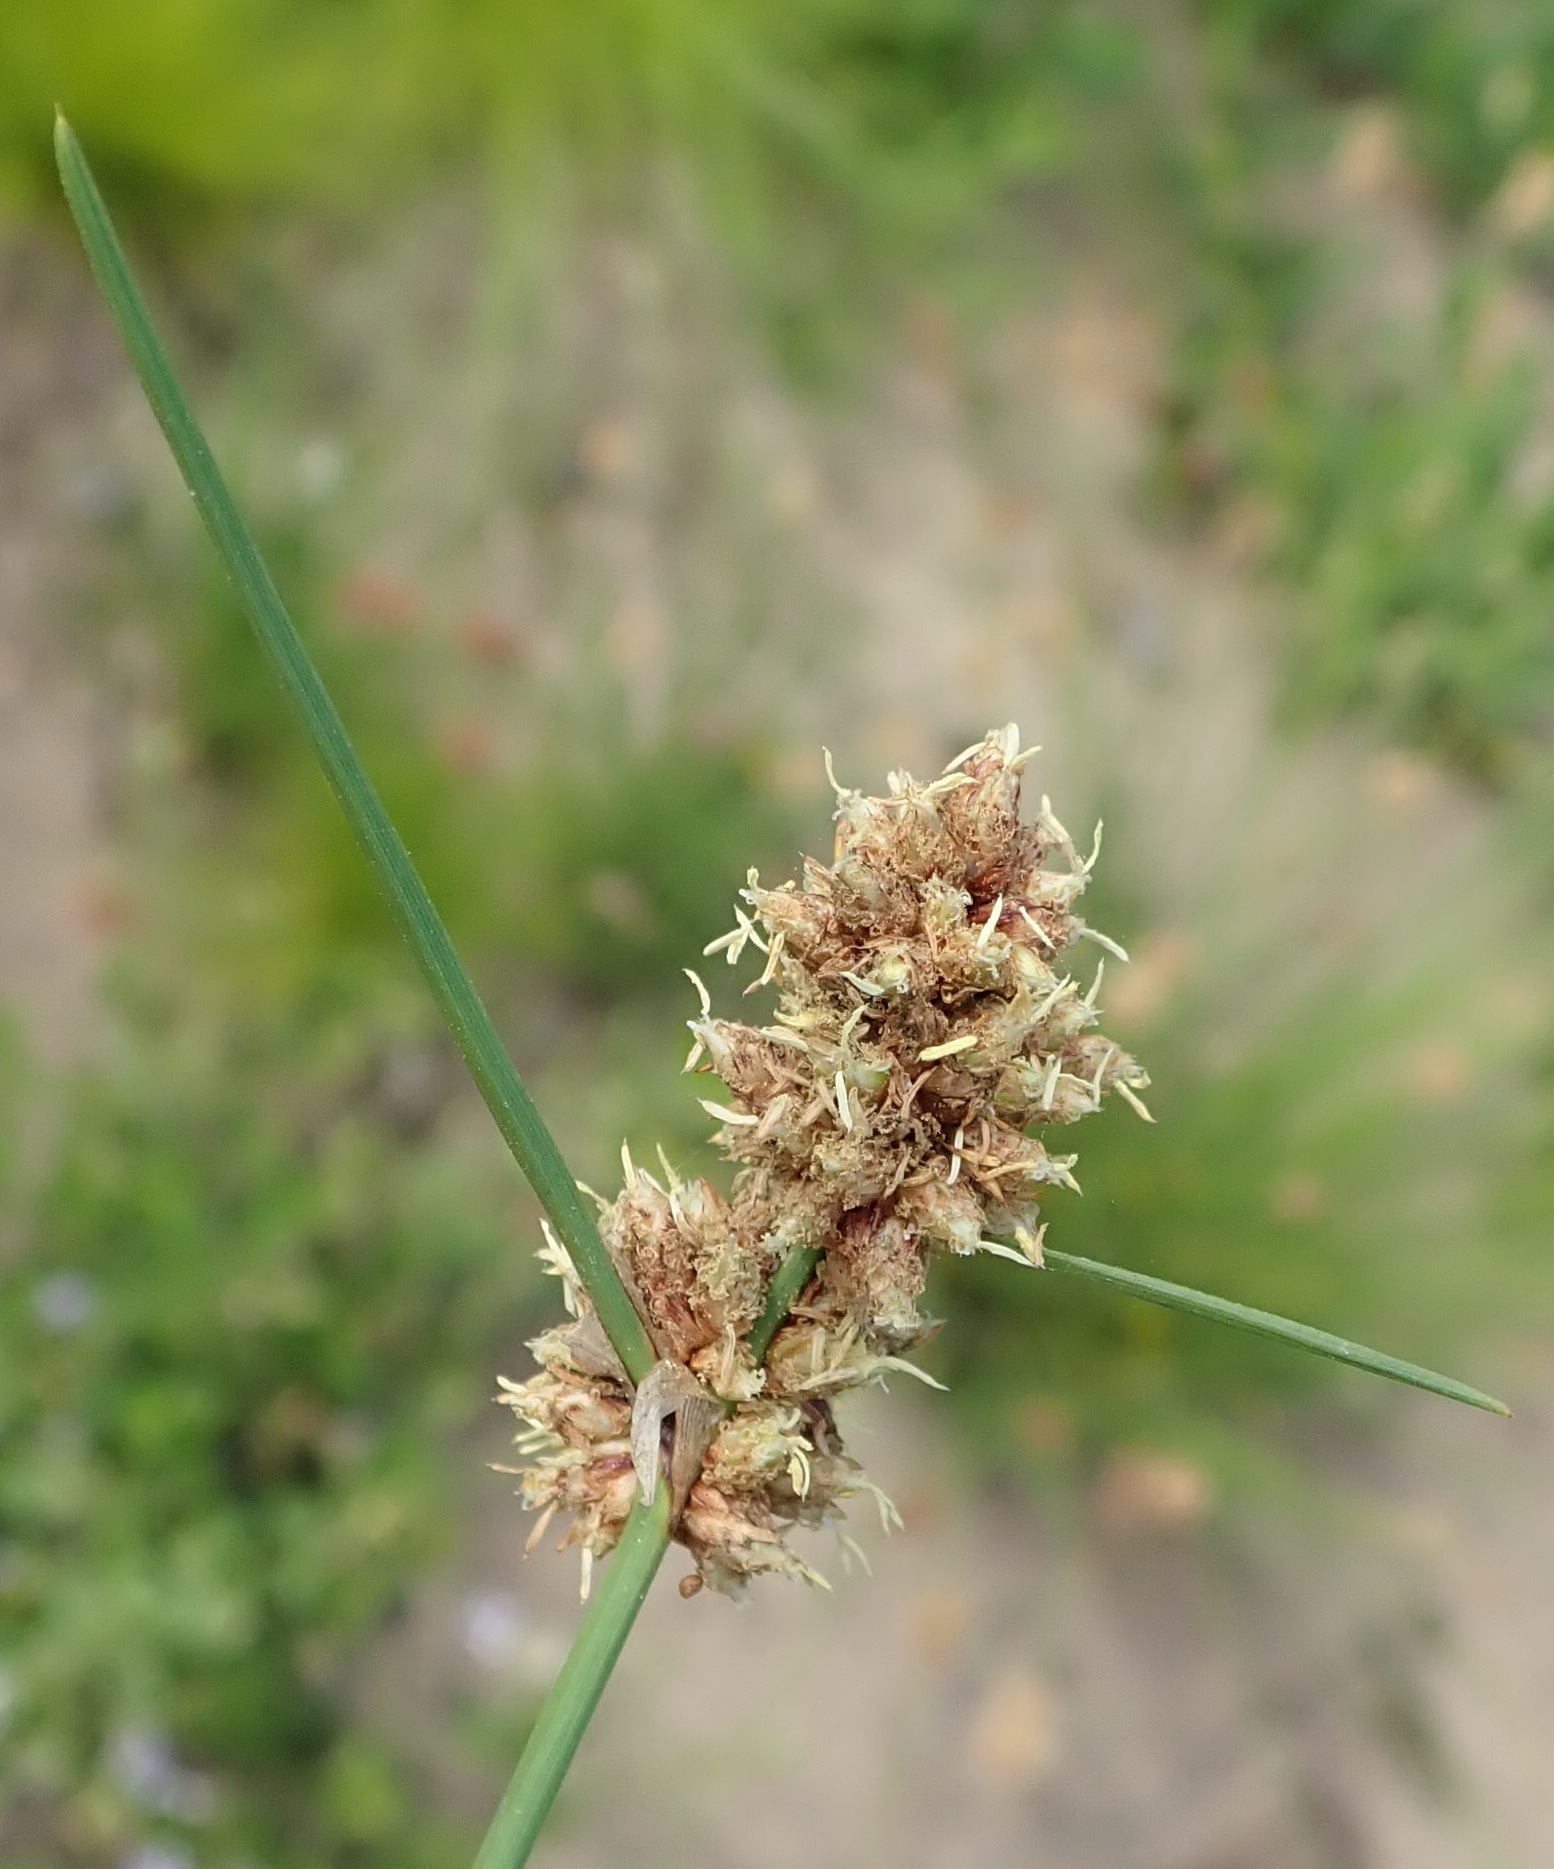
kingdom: Plantae
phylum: Tracheophyta
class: Liliopsida
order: Poales
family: Cyperaceae
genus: Ficinia
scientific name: Ficinia bulbosa
